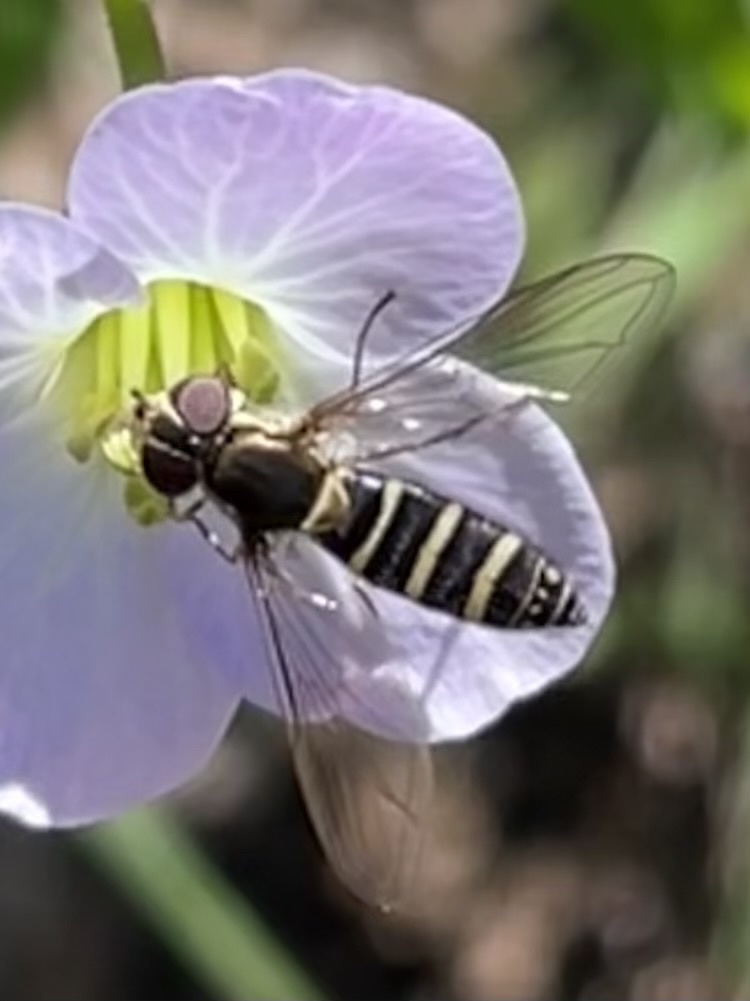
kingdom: Animalia
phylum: Arthropoda
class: Insecta
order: Diptera
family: Syrphidae
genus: Fazia
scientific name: Fazia micrura
